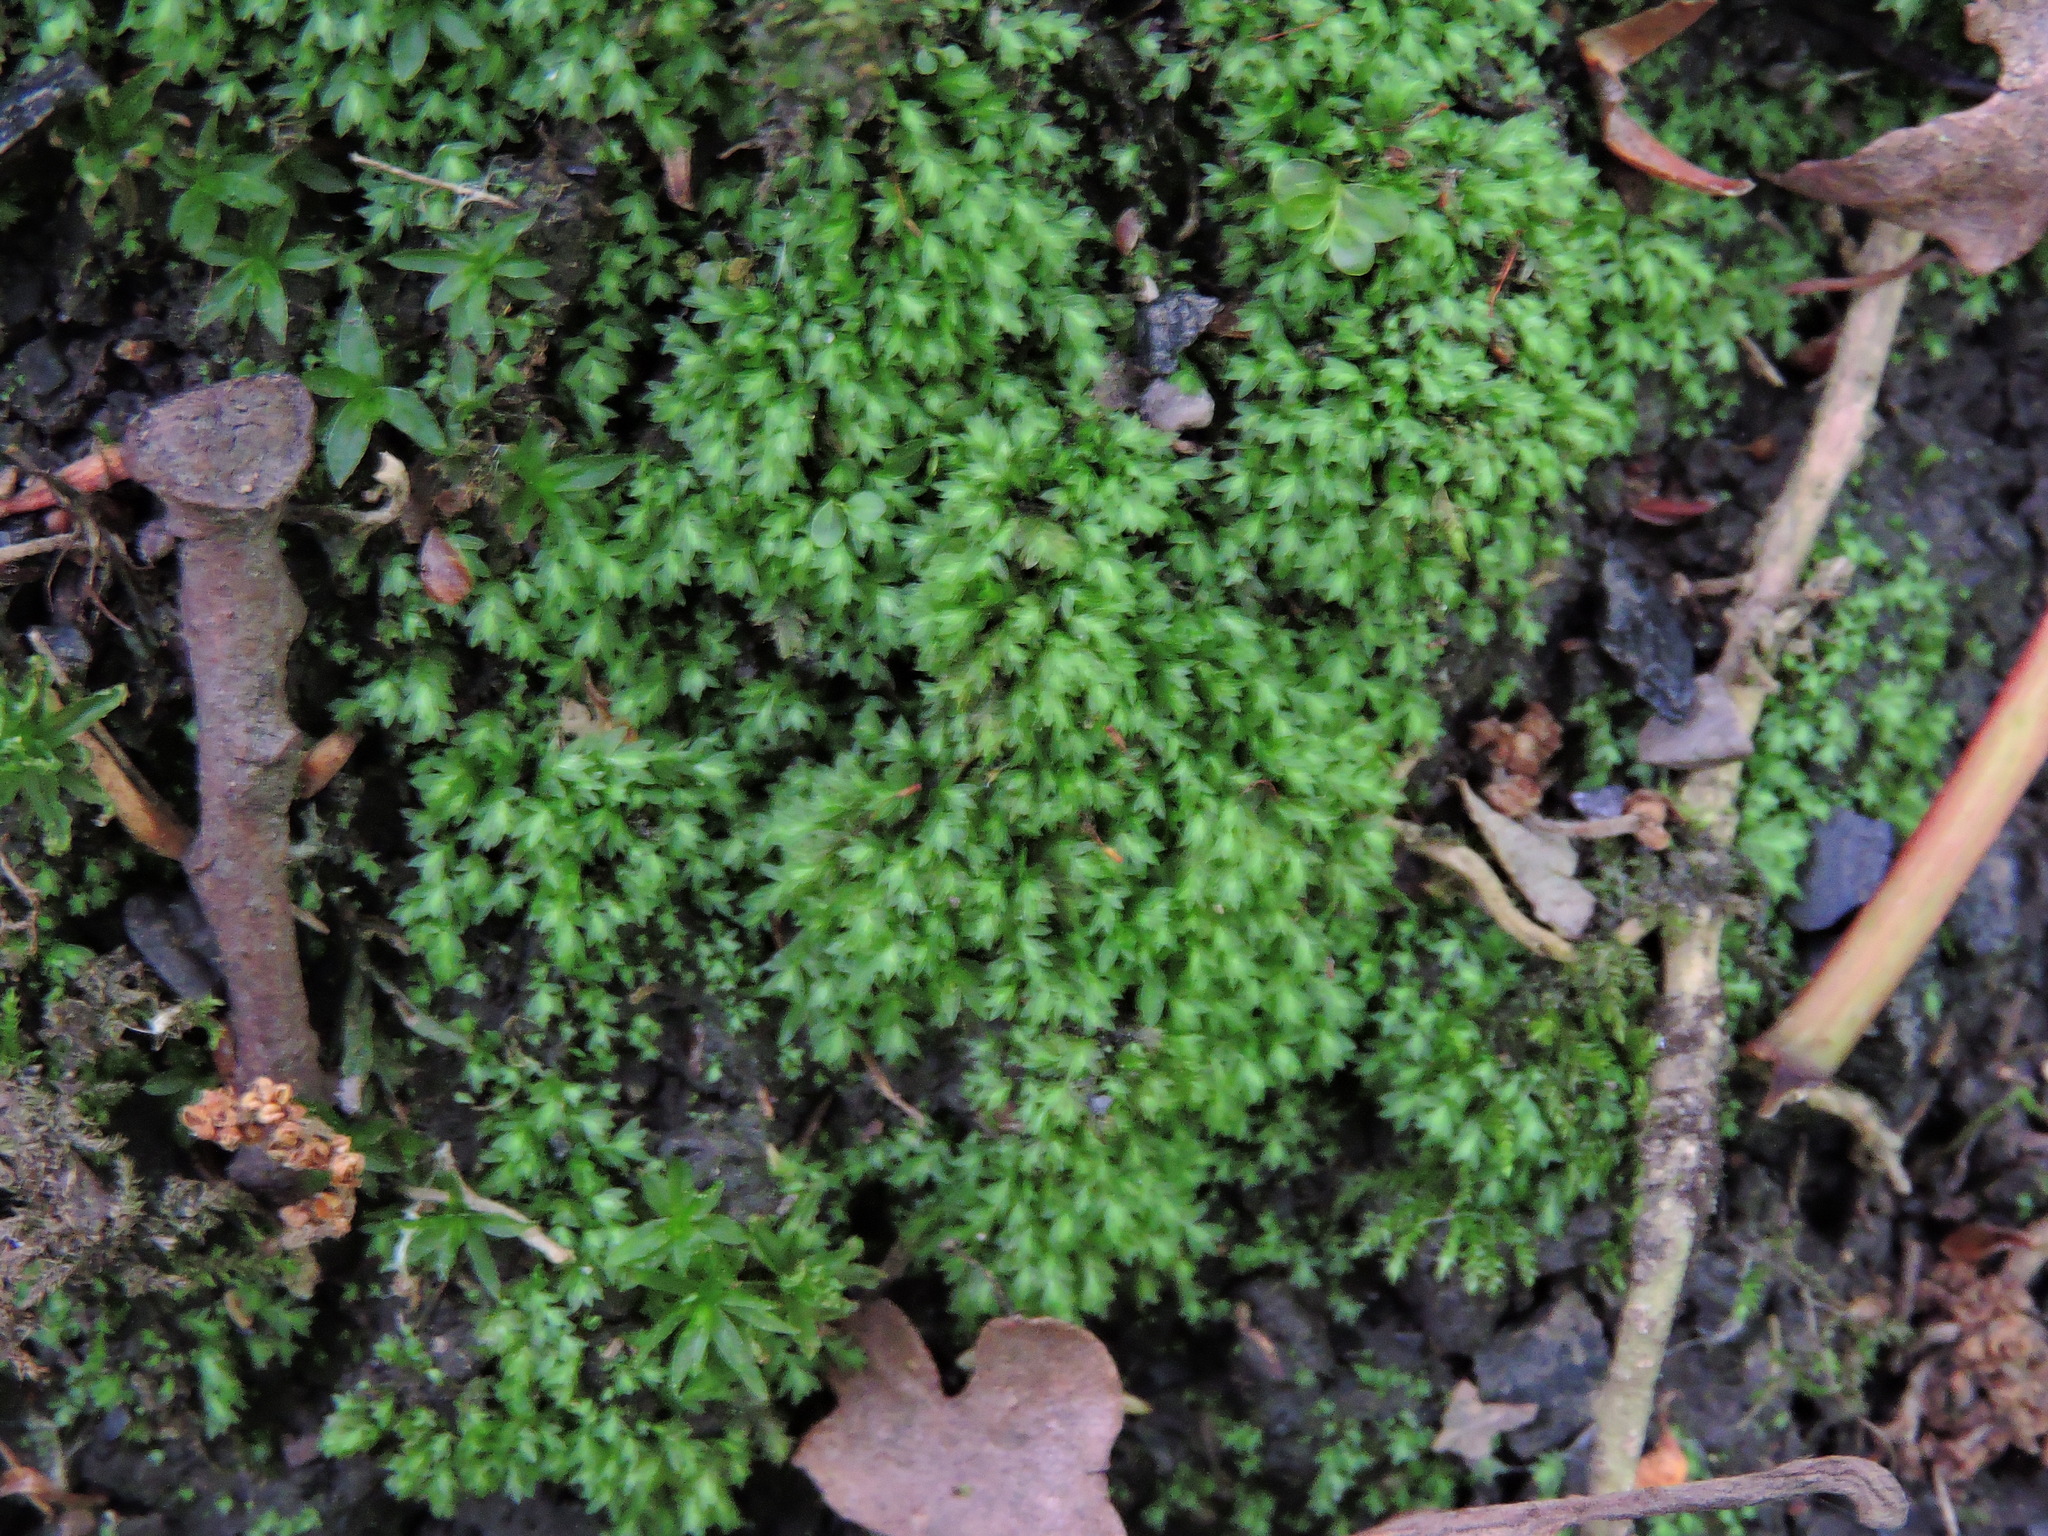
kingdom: Plantae
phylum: Bryophyta
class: Bryopsida
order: Dicranales
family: Fissidentaceae
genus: Fissidens
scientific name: Fissidens taxifolius
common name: Yew-leaved pocket moss
